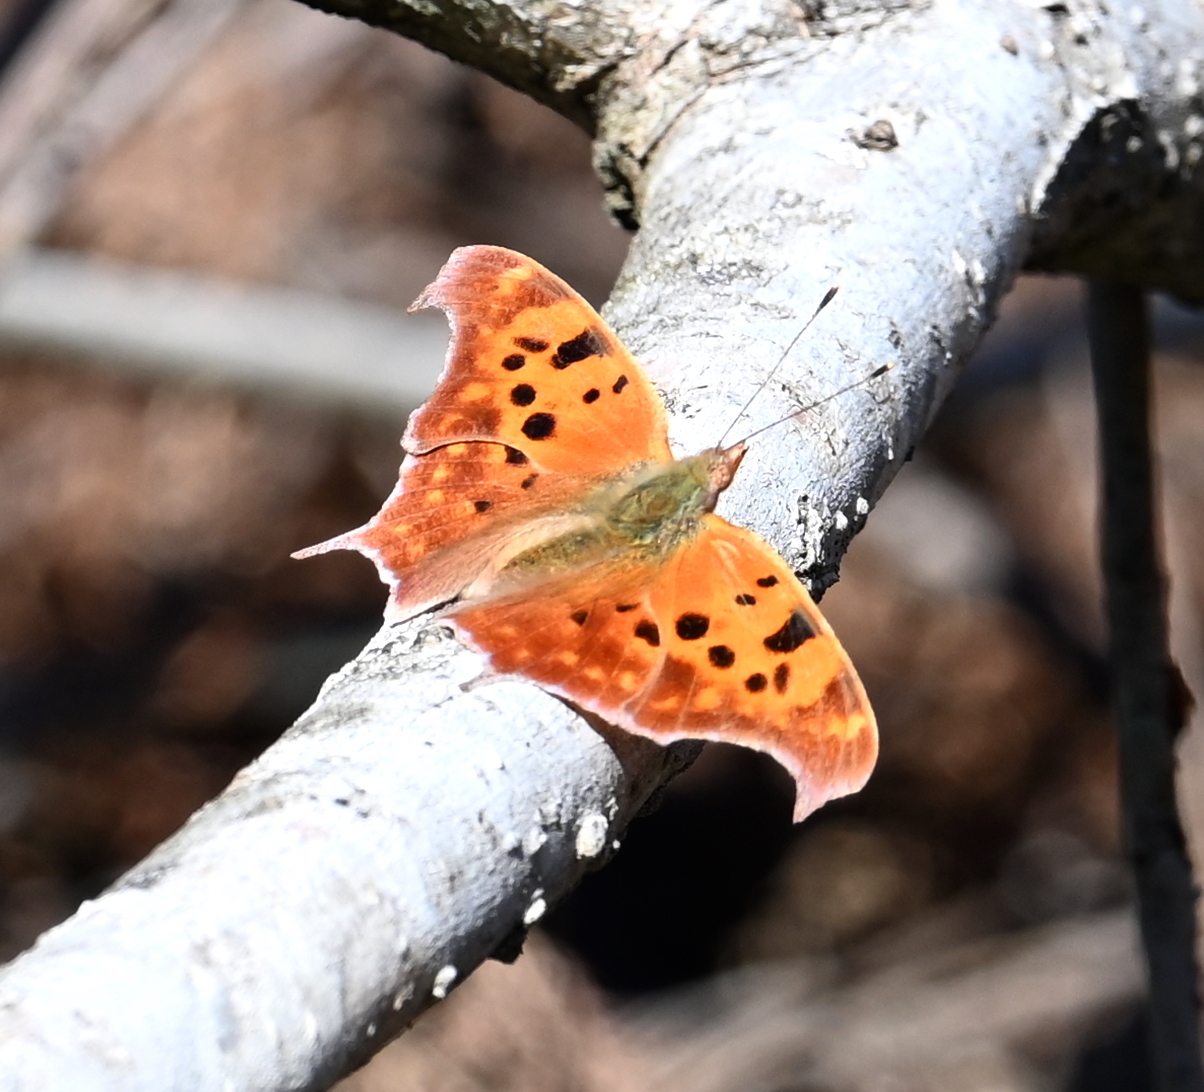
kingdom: Animalia
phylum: Arthropoda
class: Insecta
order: Lepidoptera
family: Nymphalidae
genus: Polygonia
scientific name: Polygonia interrogationis
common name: Question mark
